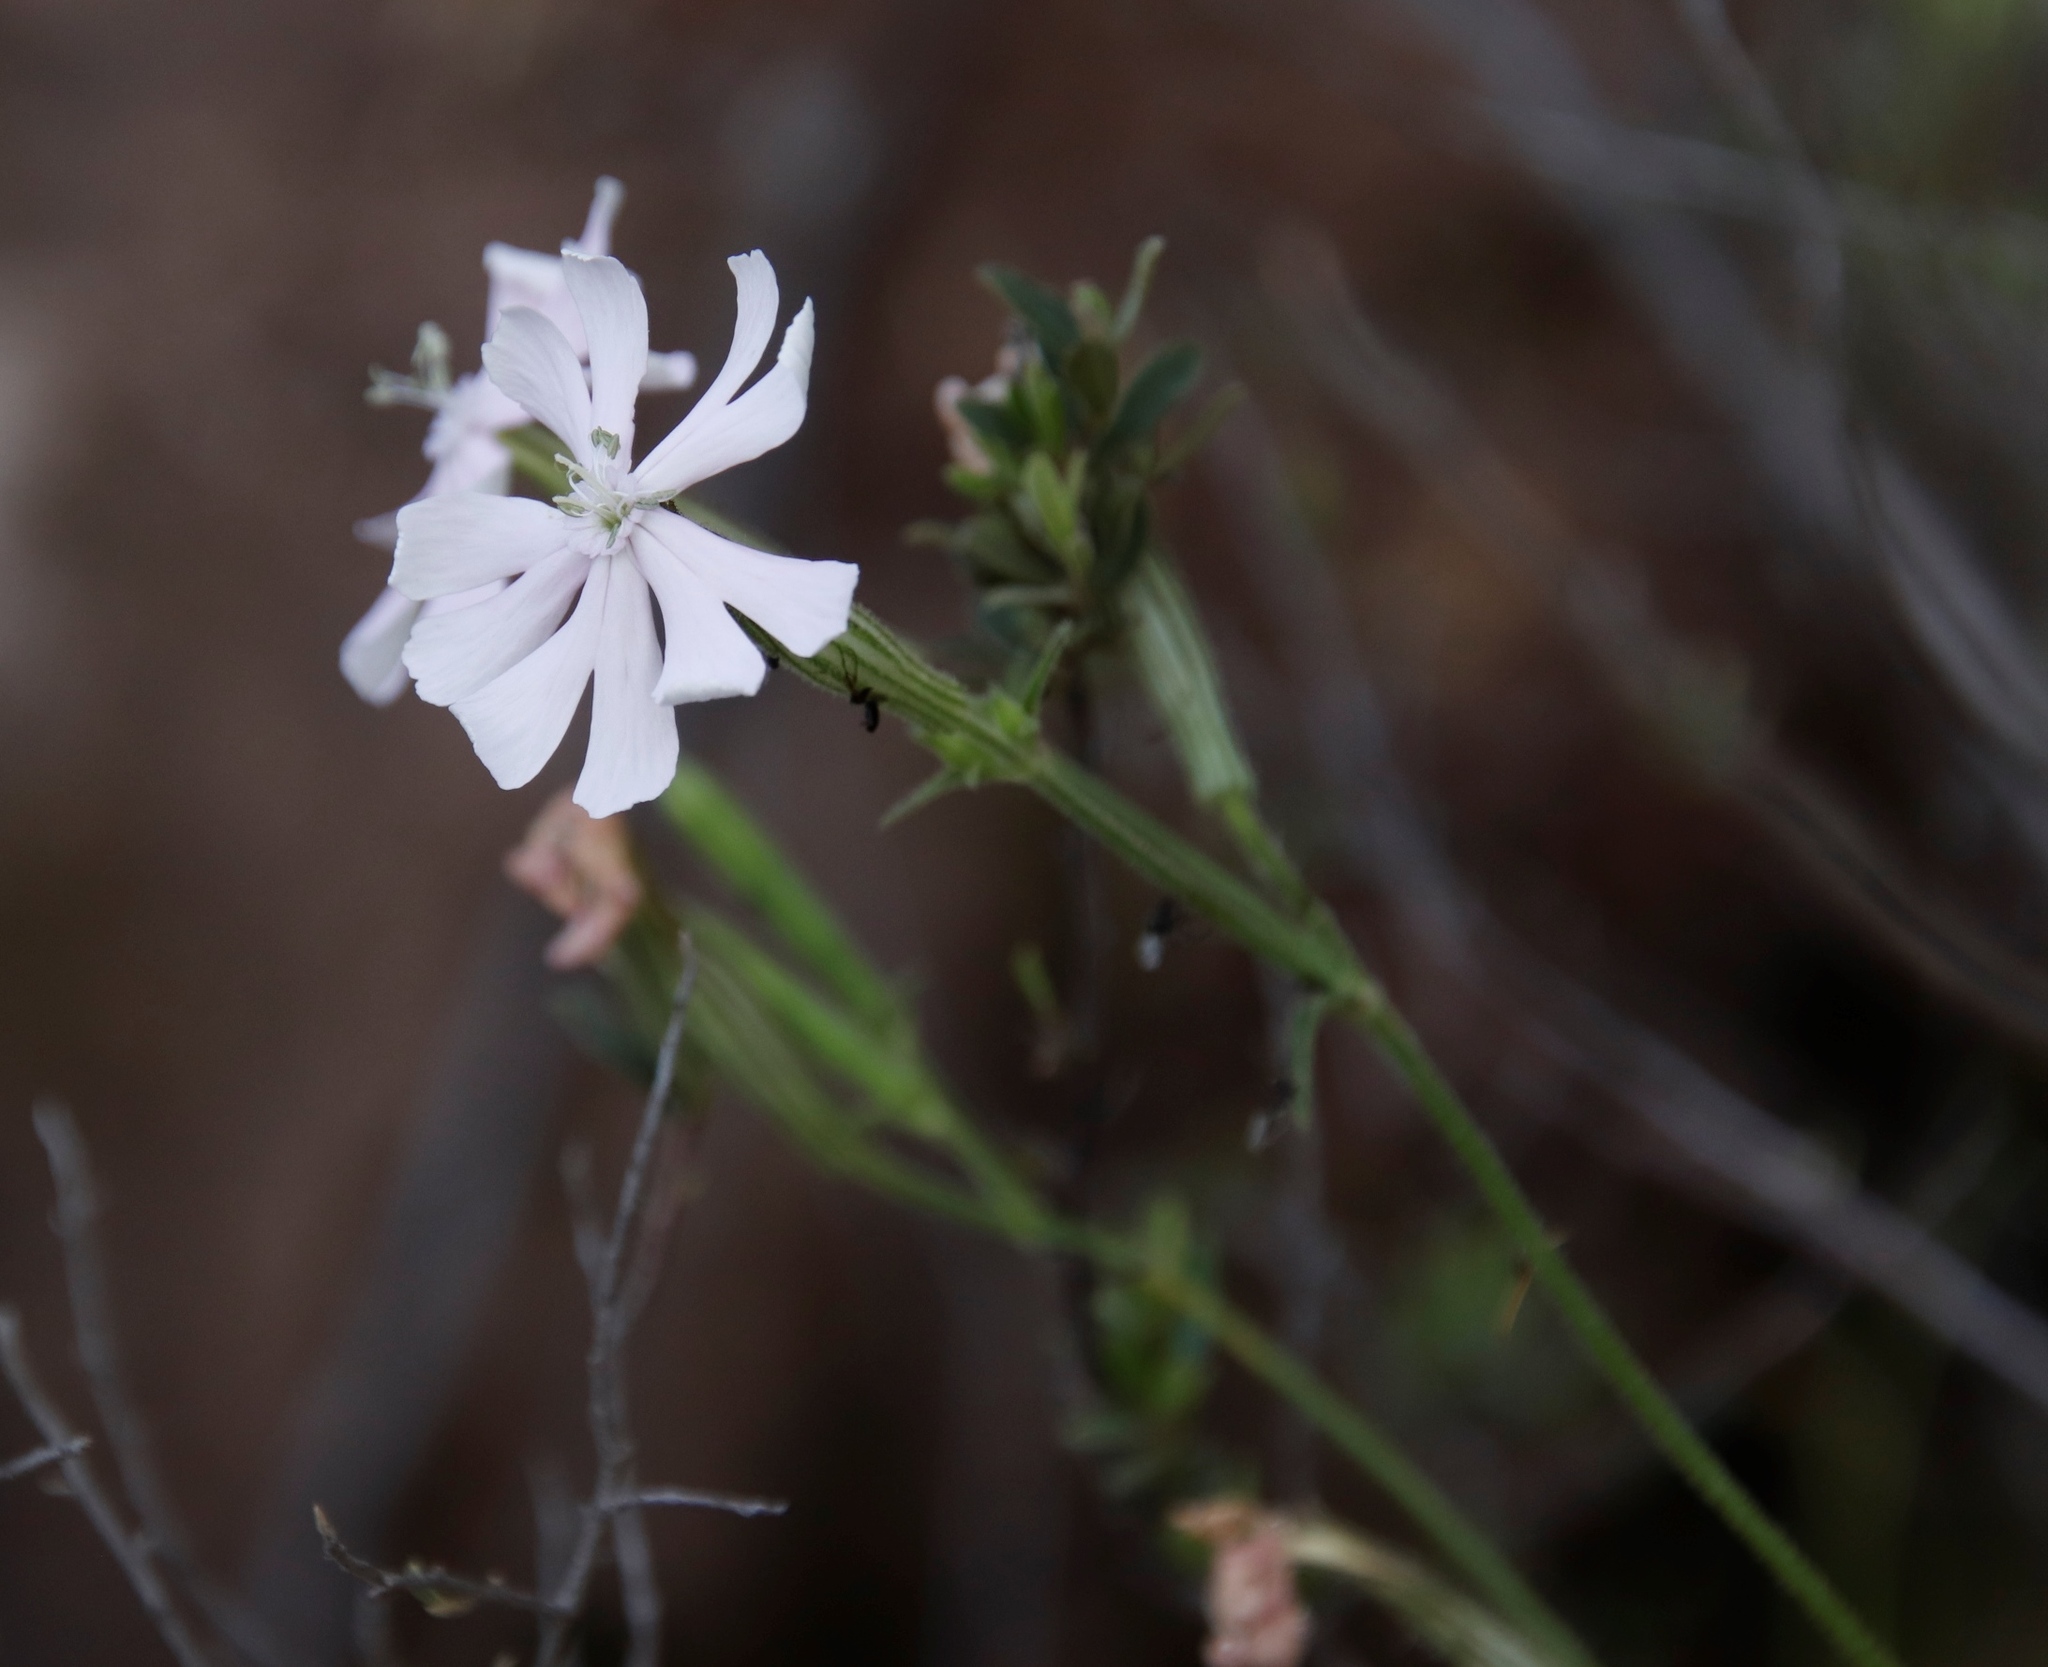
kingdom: Plantae
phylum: Tracheophyta
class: Magnoliopsida
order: Caryophyllales
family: Caryophyllaceae
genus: Silene
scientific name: Silene undulata
